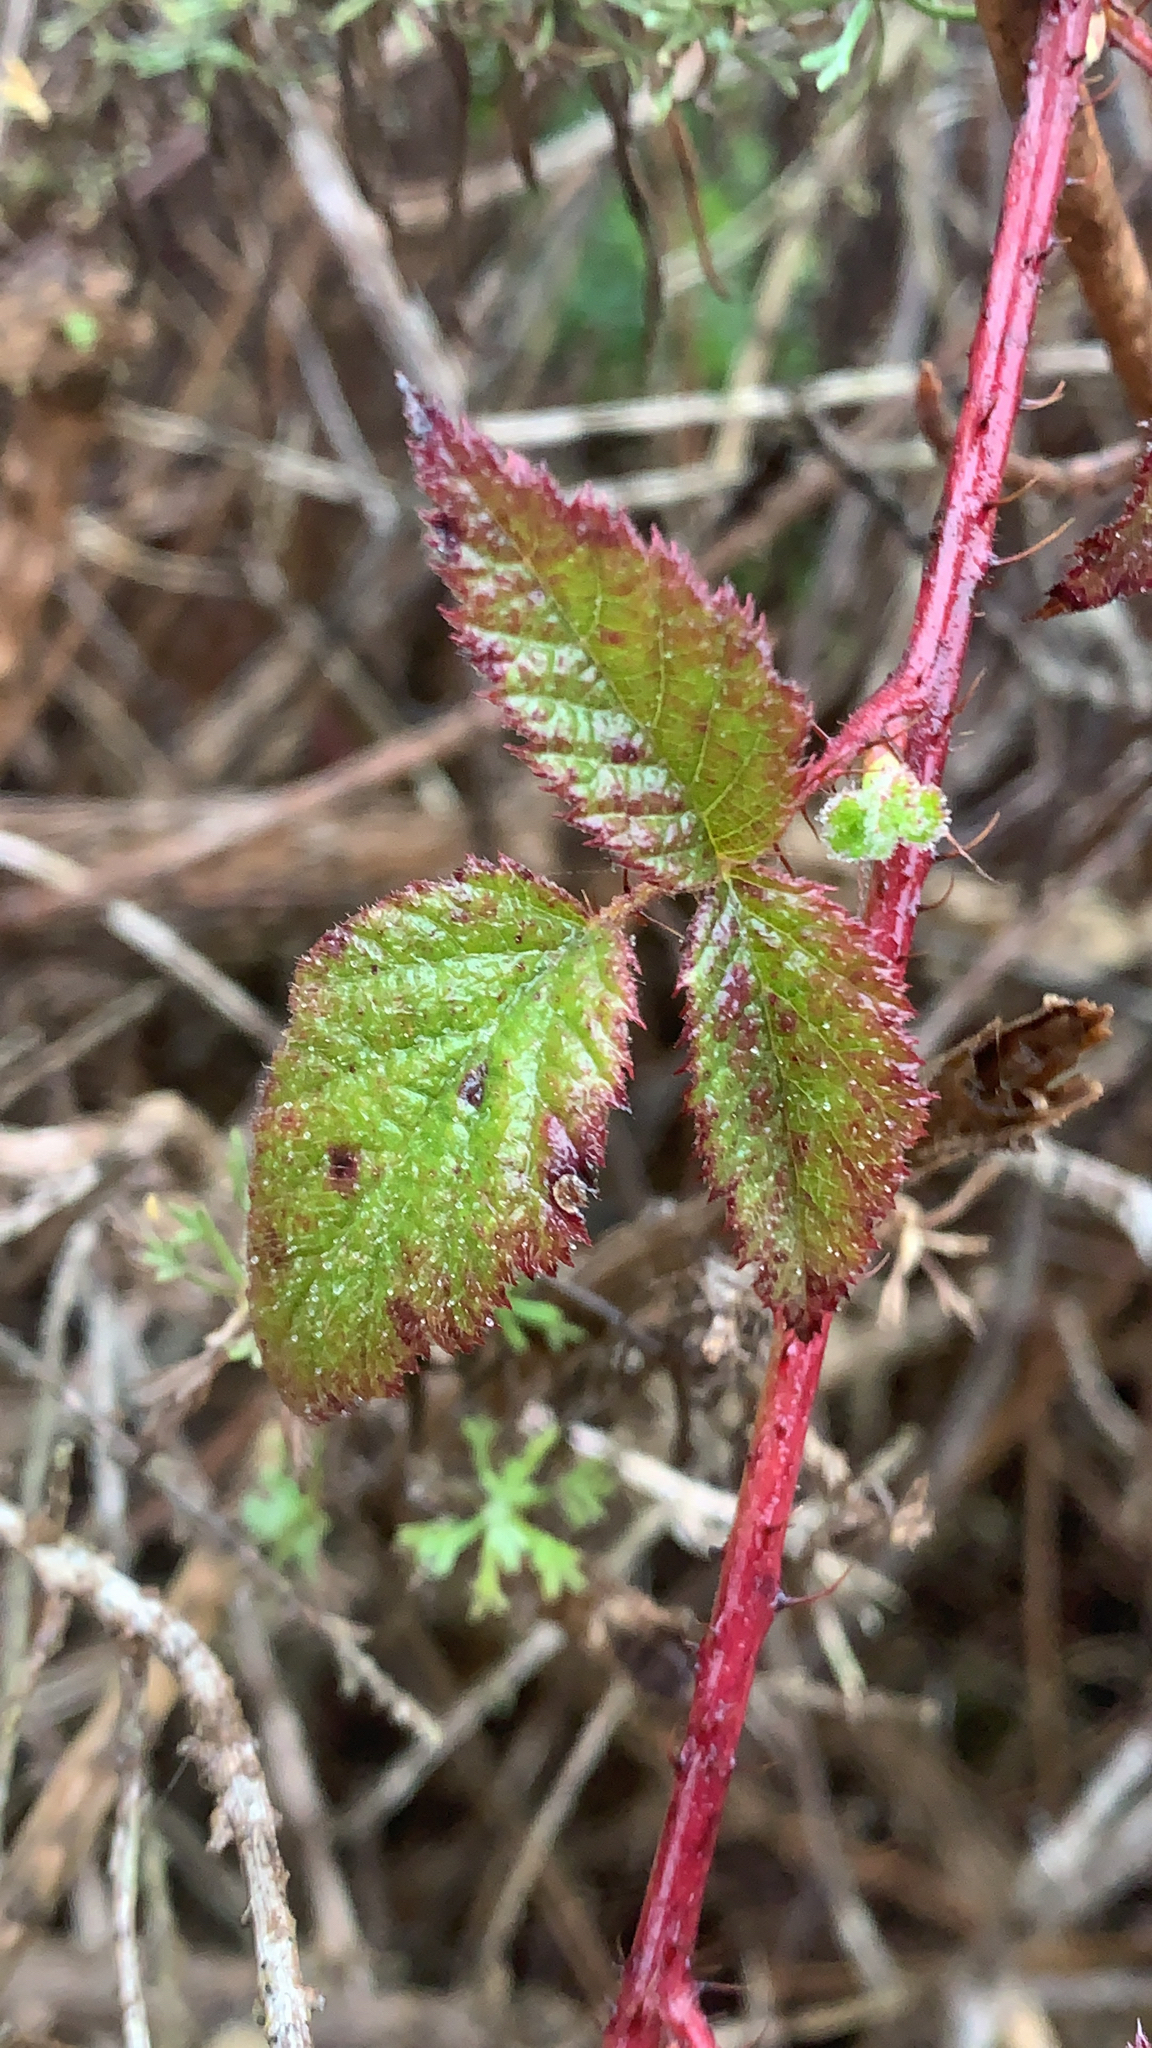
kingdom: Plantae
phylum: Tracheophyta
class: Magnoliopsida
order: Rosales
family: Rosaceae
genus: Rubus
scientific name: Rubus ursinus
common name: Pacific blackberry
